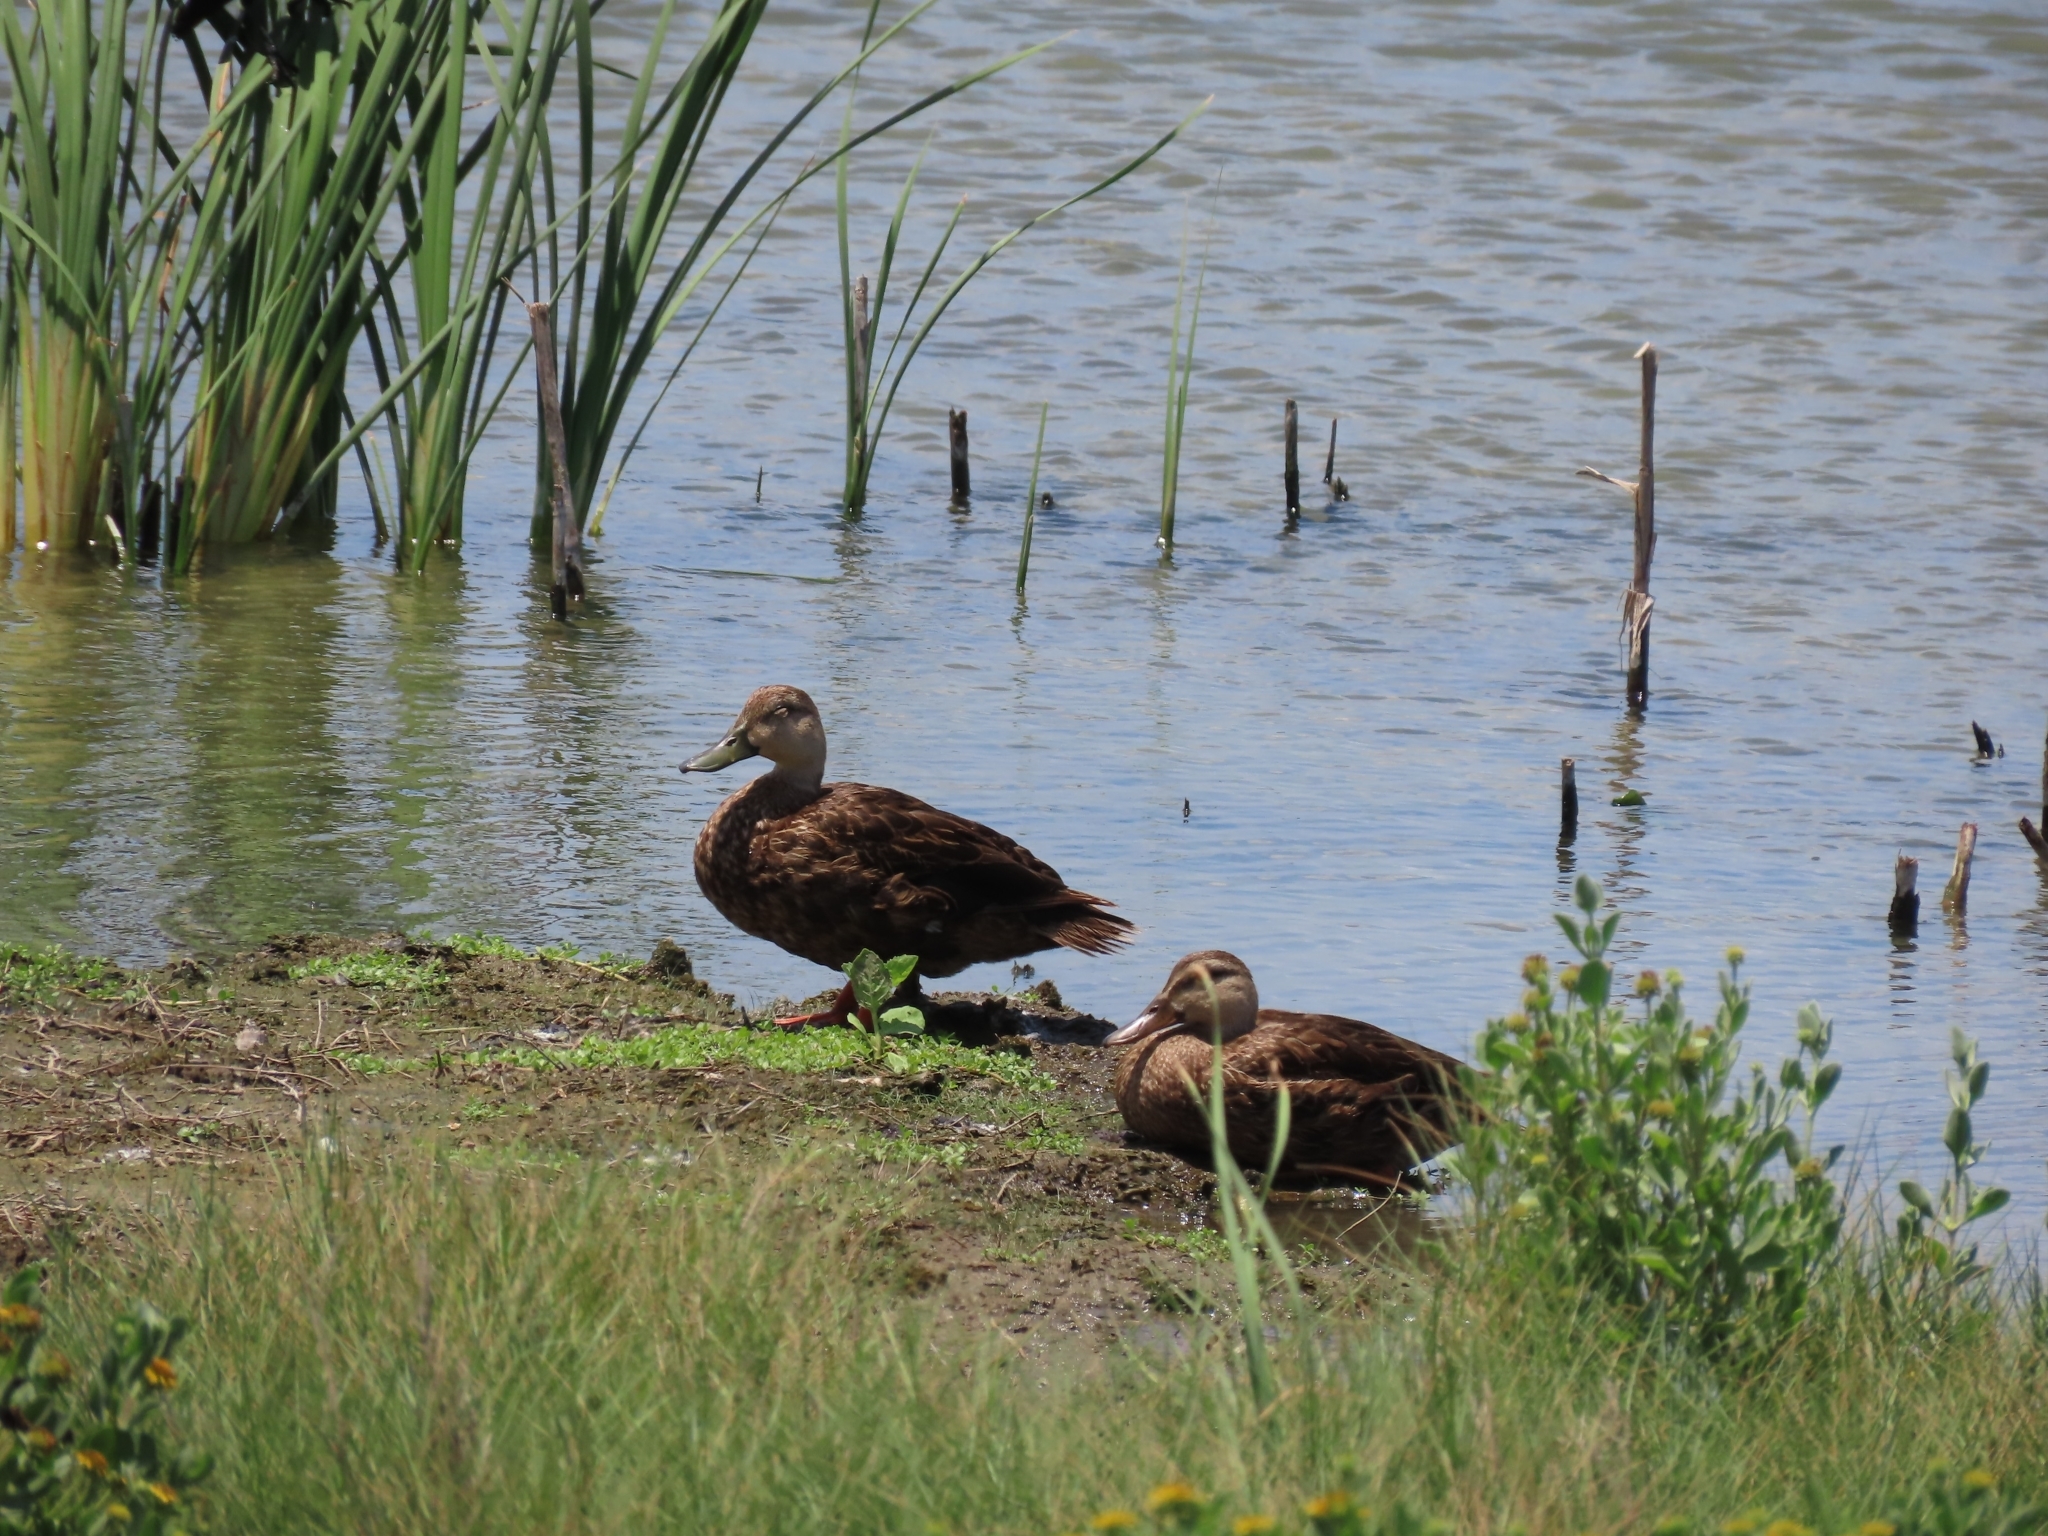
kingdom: Animalia
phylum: Chordata
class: Aves
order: Anseriformes
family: Anatidae
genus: Anas
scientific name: Anas fulvigula
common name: Mottled duck
